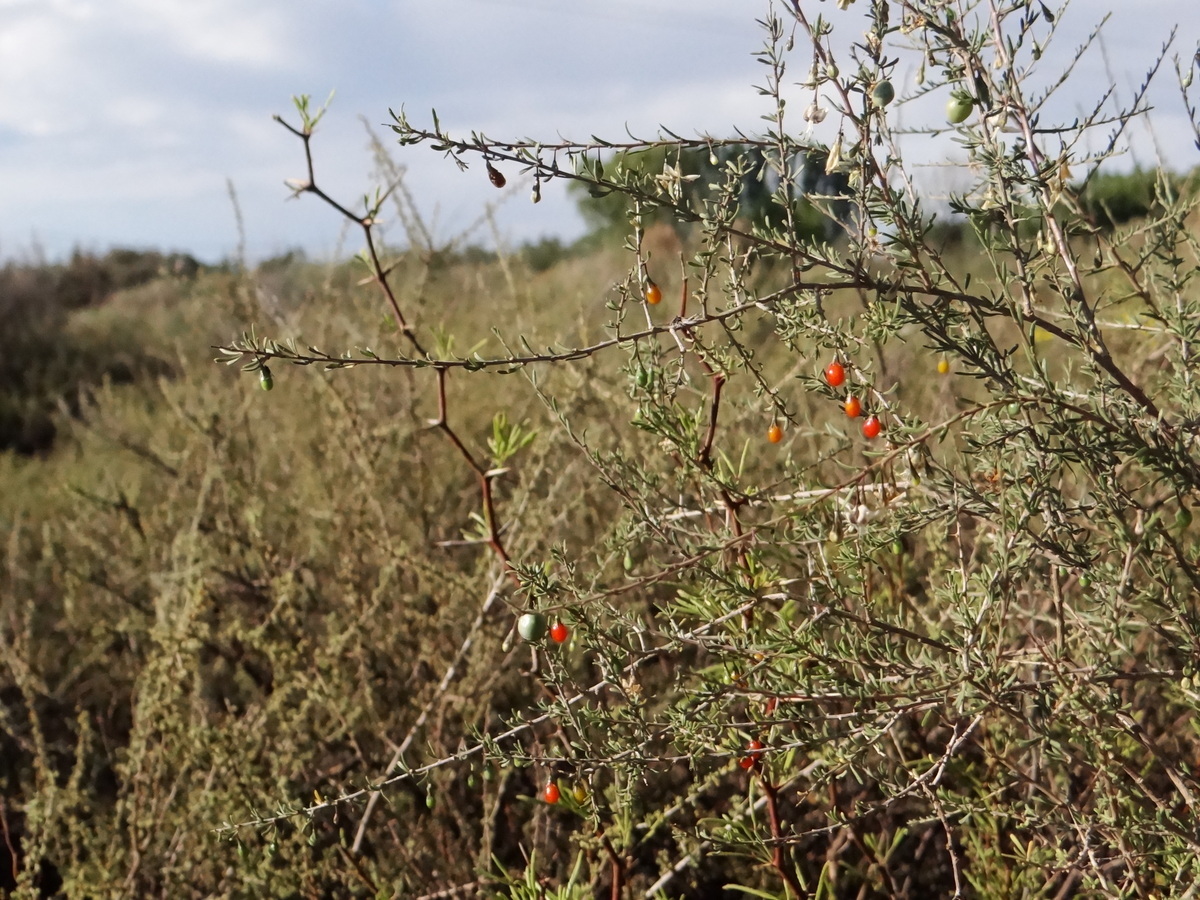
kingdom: Plantae
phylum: Tracheophyta
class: Magnoliopsida
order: Solanales
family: Solanaceae
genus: Lycium
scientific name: Lycium chilense
